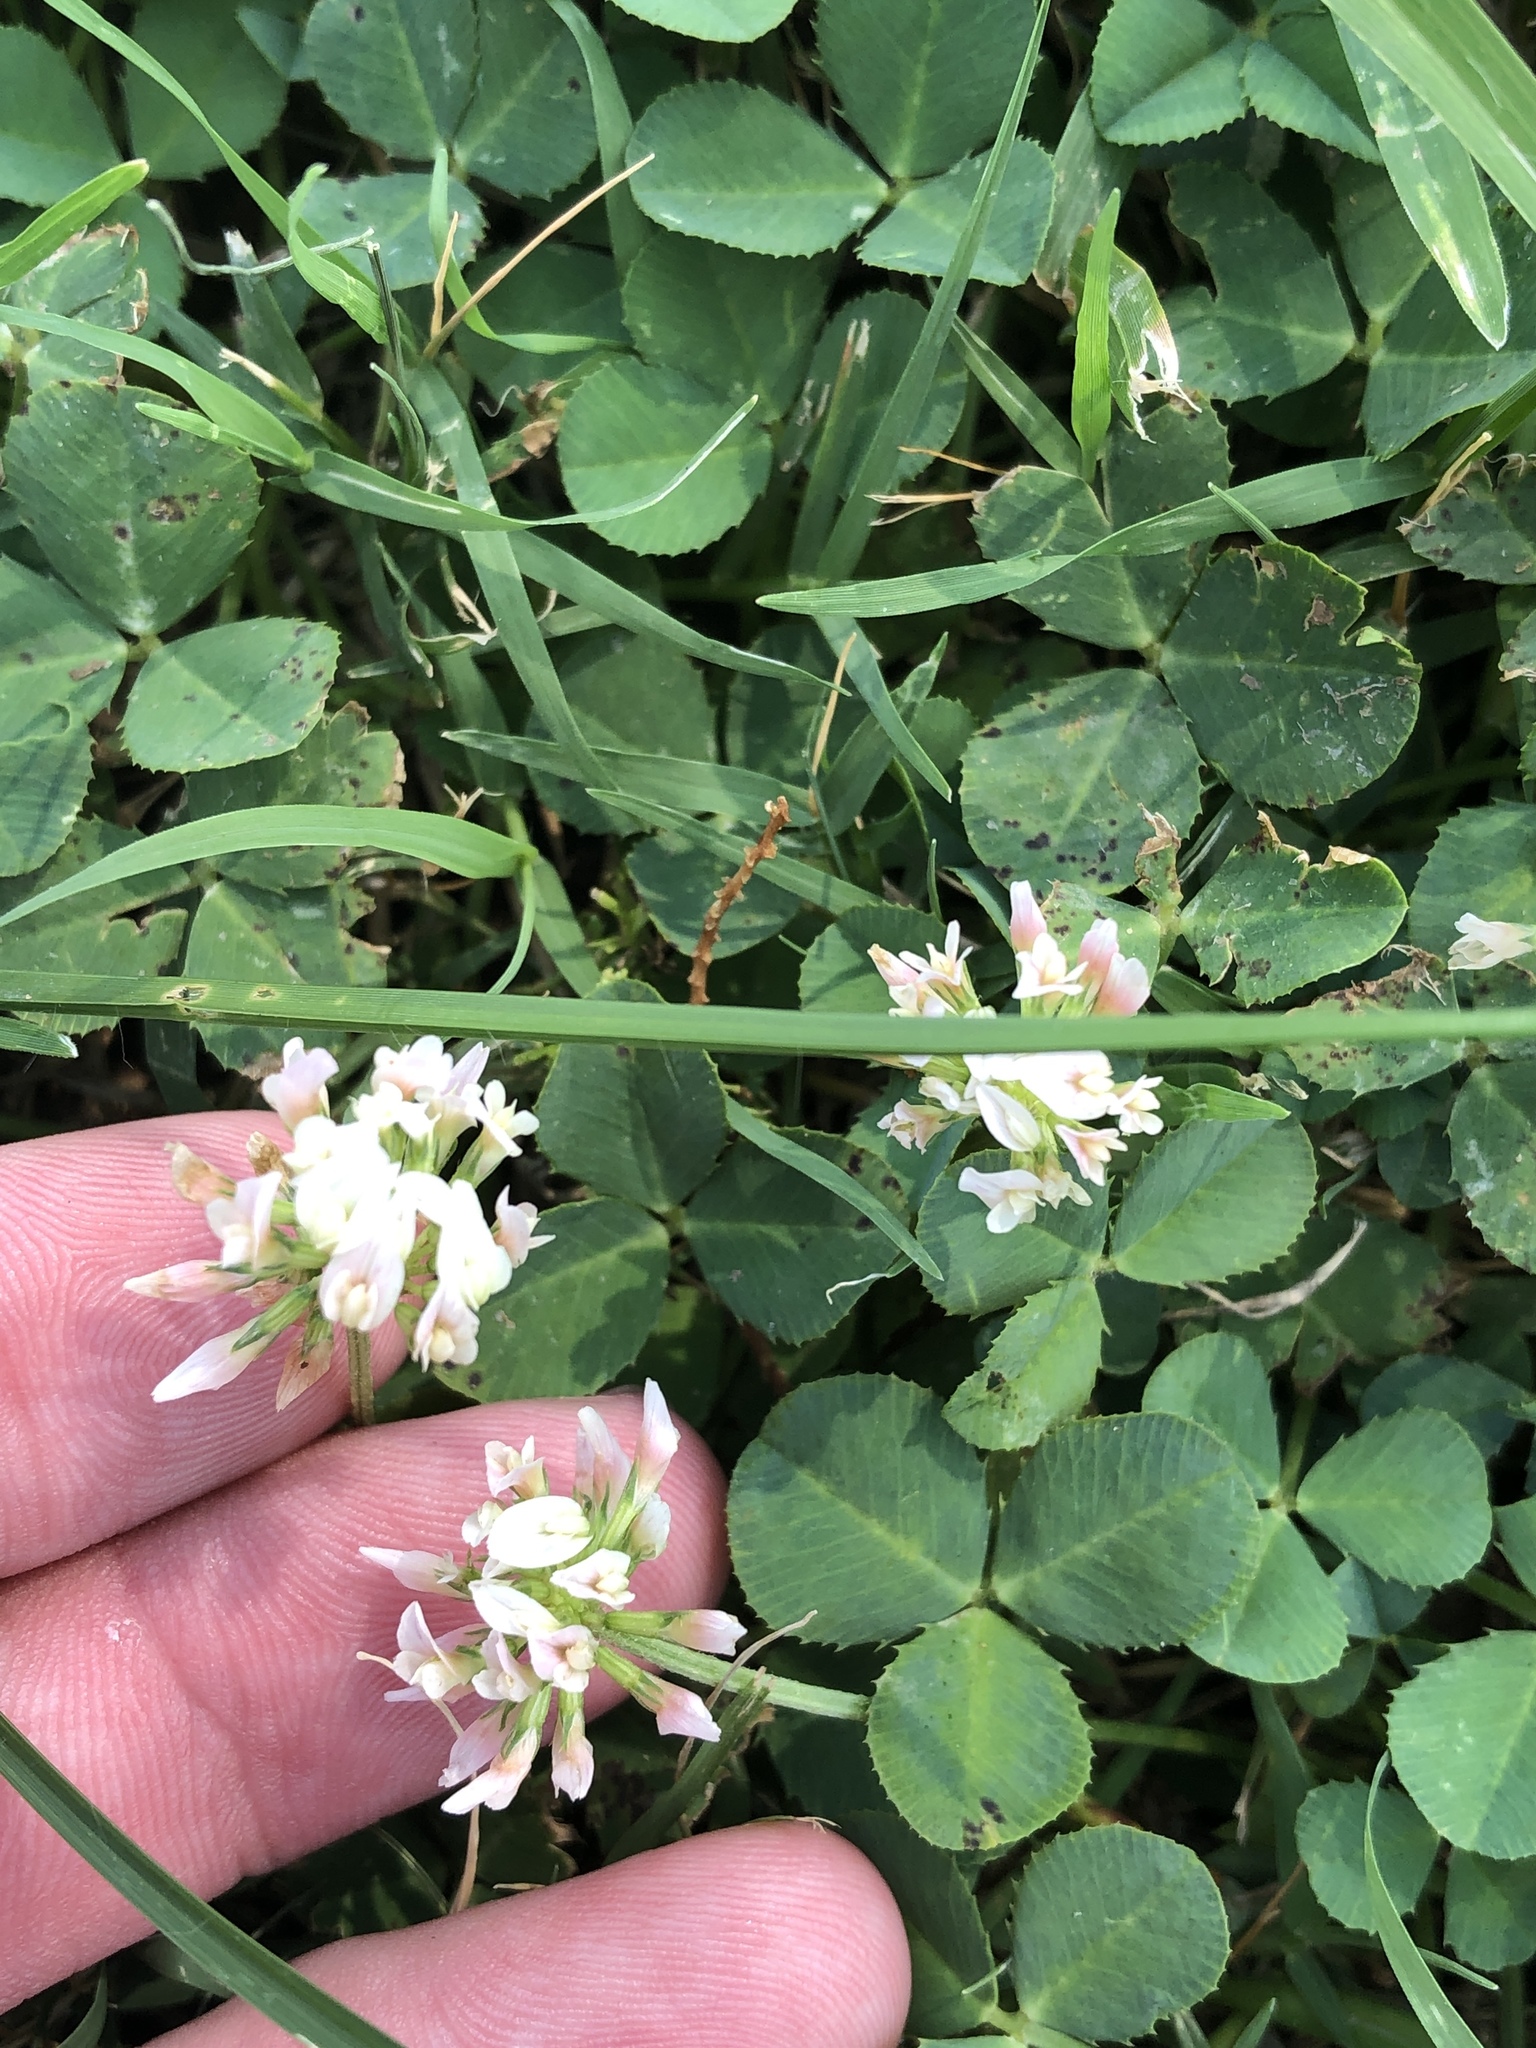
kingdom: Plantae
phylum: Tracheophyta
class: Magnoliopsida
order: Fabales
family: Fabaceae
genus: Trifolium
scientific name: Trifolium repens
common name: White clover
